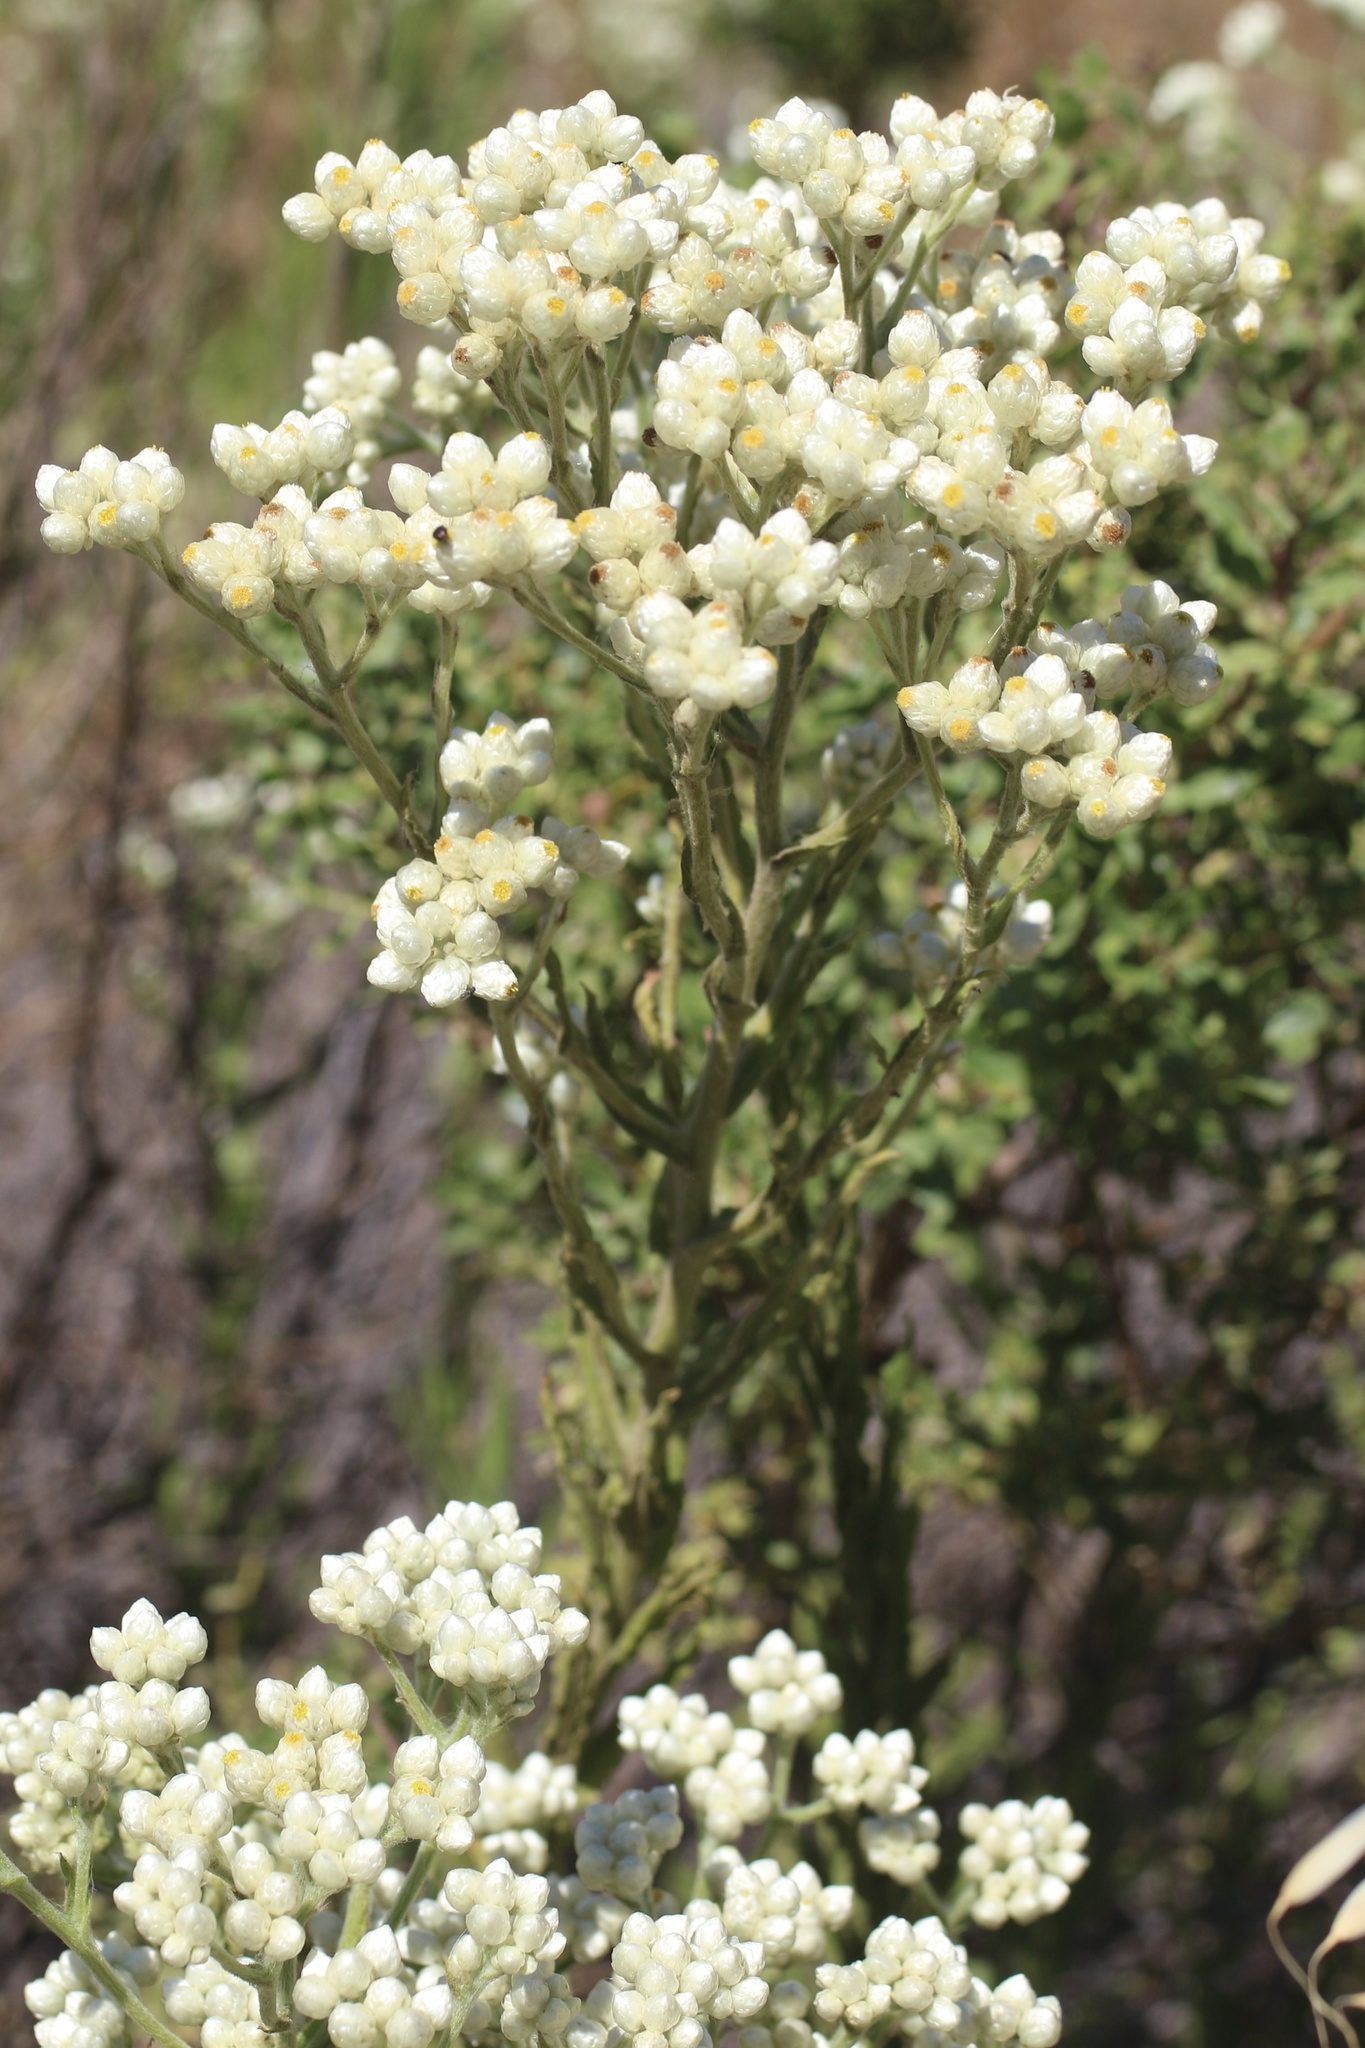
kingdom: Plantae
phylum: Tracheophyta
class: Magnoliopsida
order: Asterales
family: Asteraceae
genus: Pseudognaphalium
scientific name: Pseudognaphalium californicum
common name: California rabbit-tobacco
